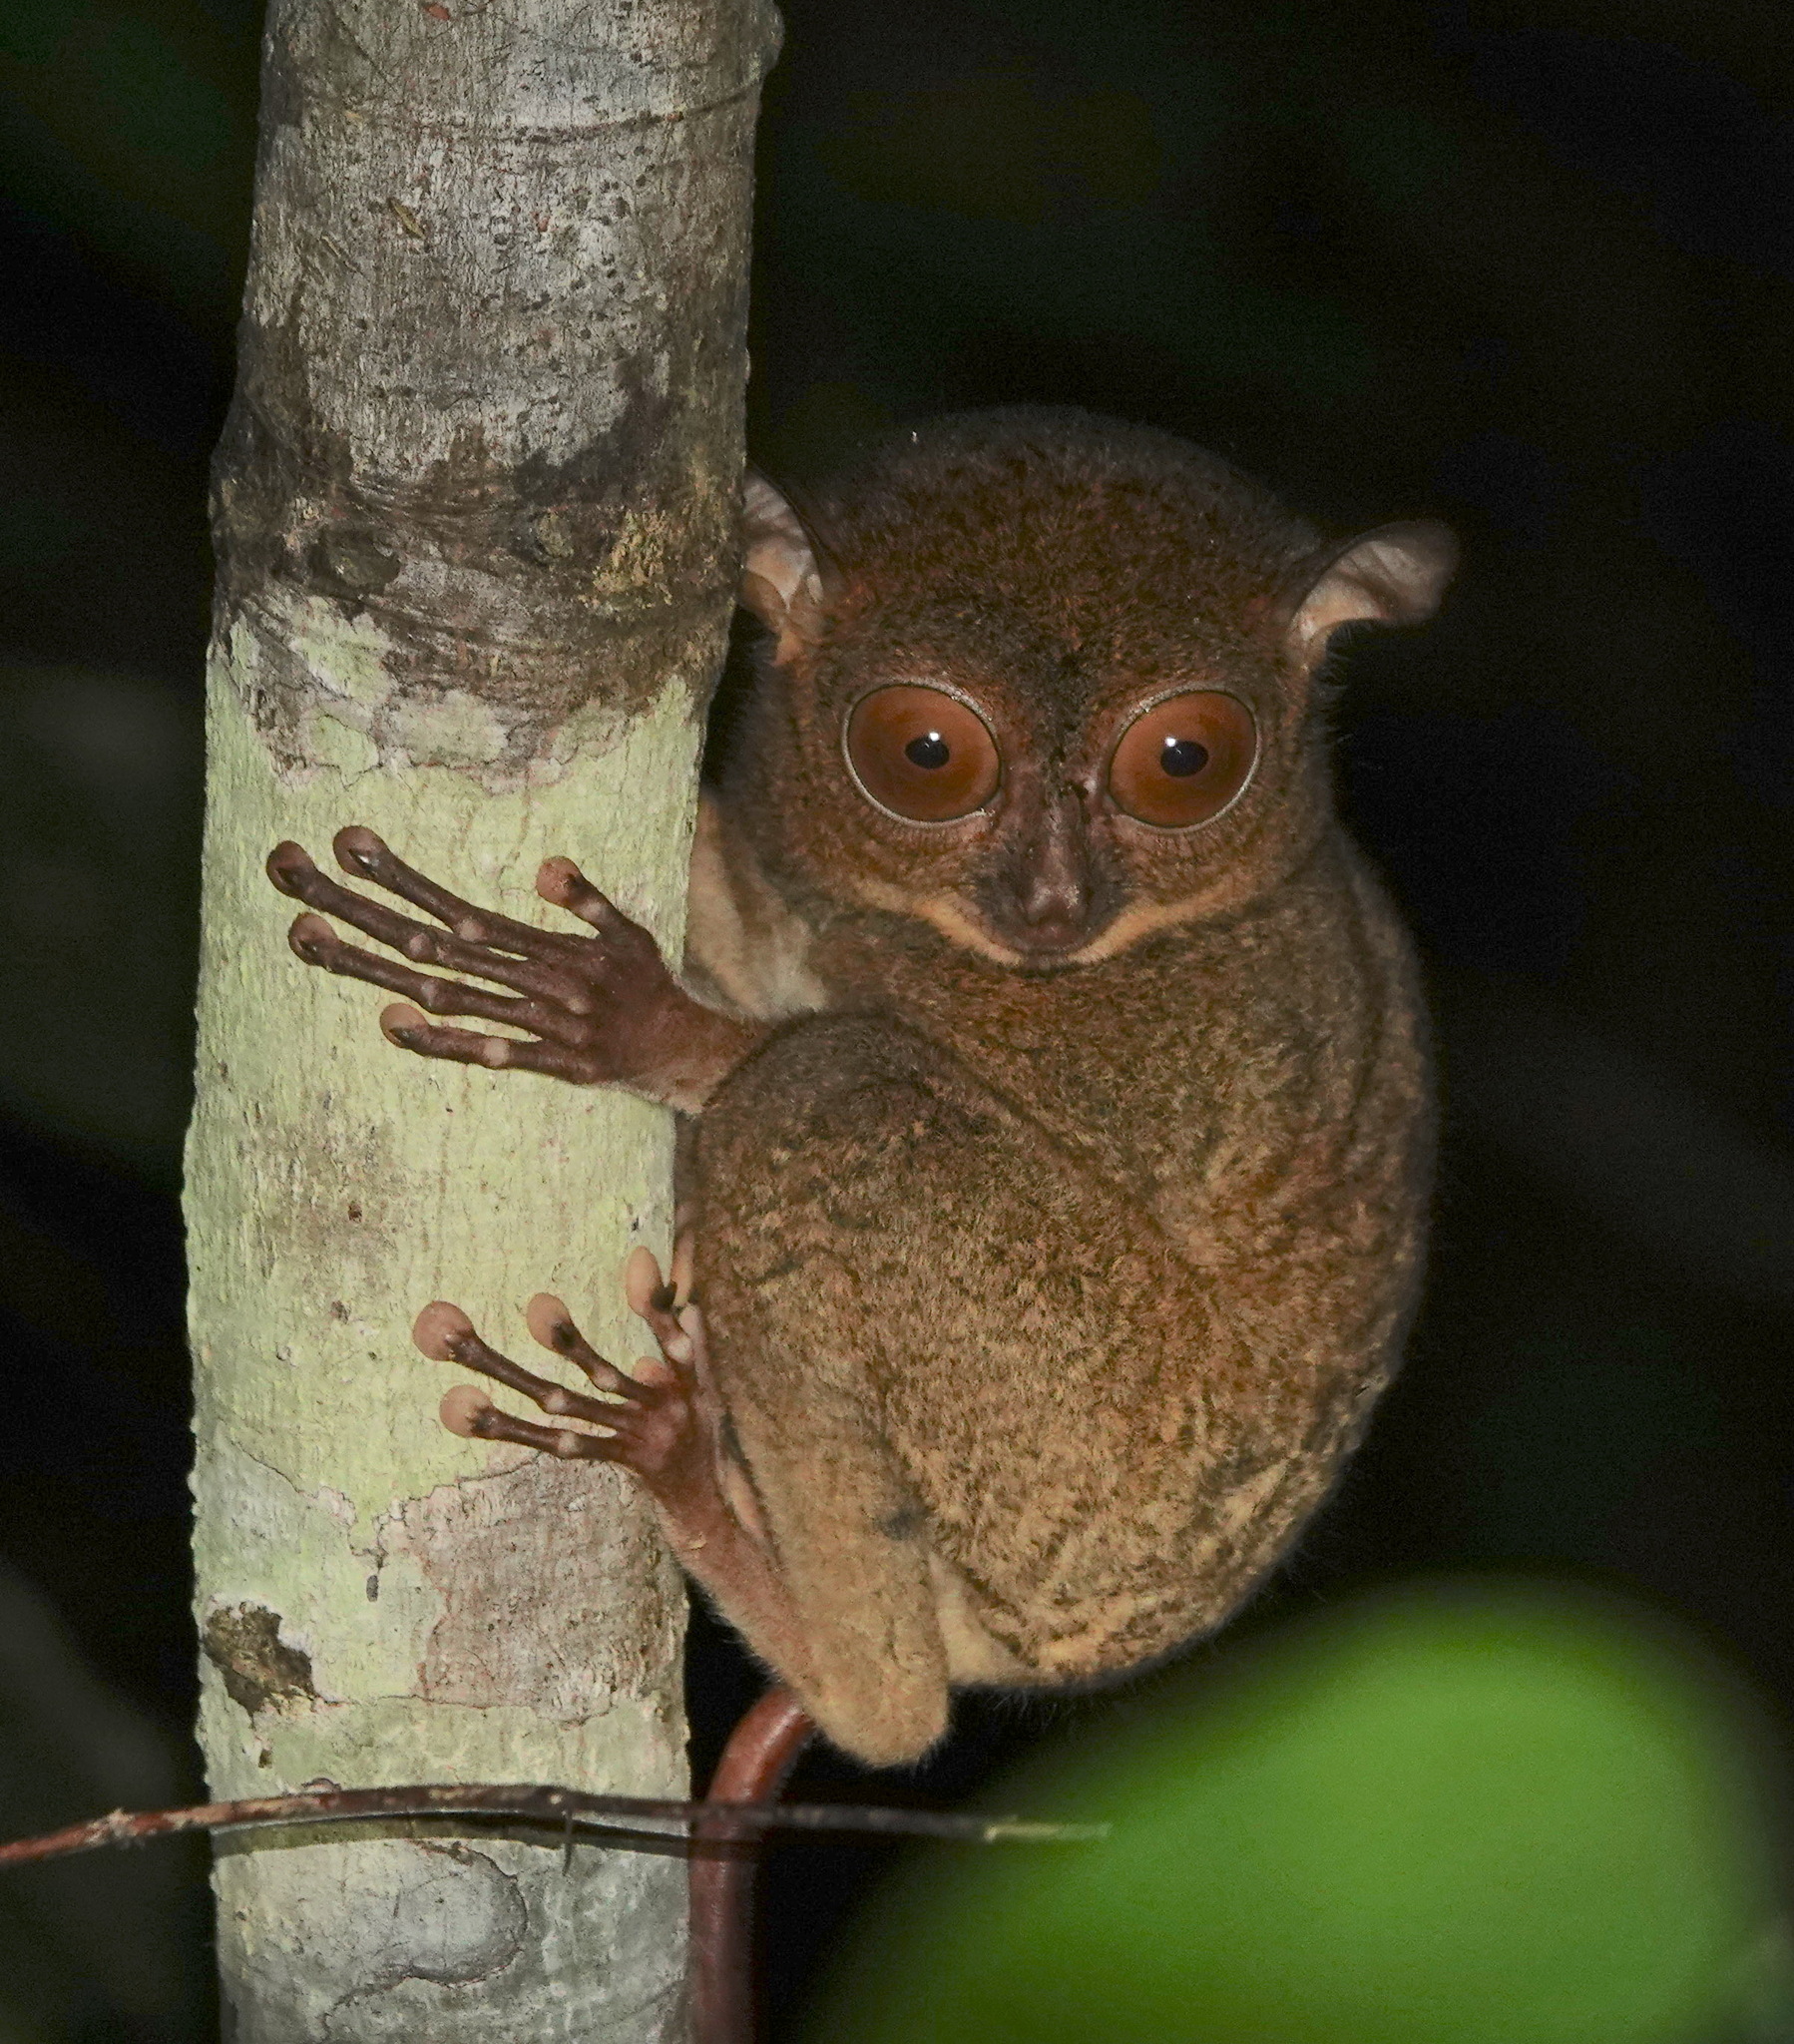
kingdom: Animalia
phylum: Chordata
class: Mammalia
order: Primates
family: Tarsiidae
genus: Cephalopachus
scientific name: Cephalopachus bancanus
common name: Western tarsier
